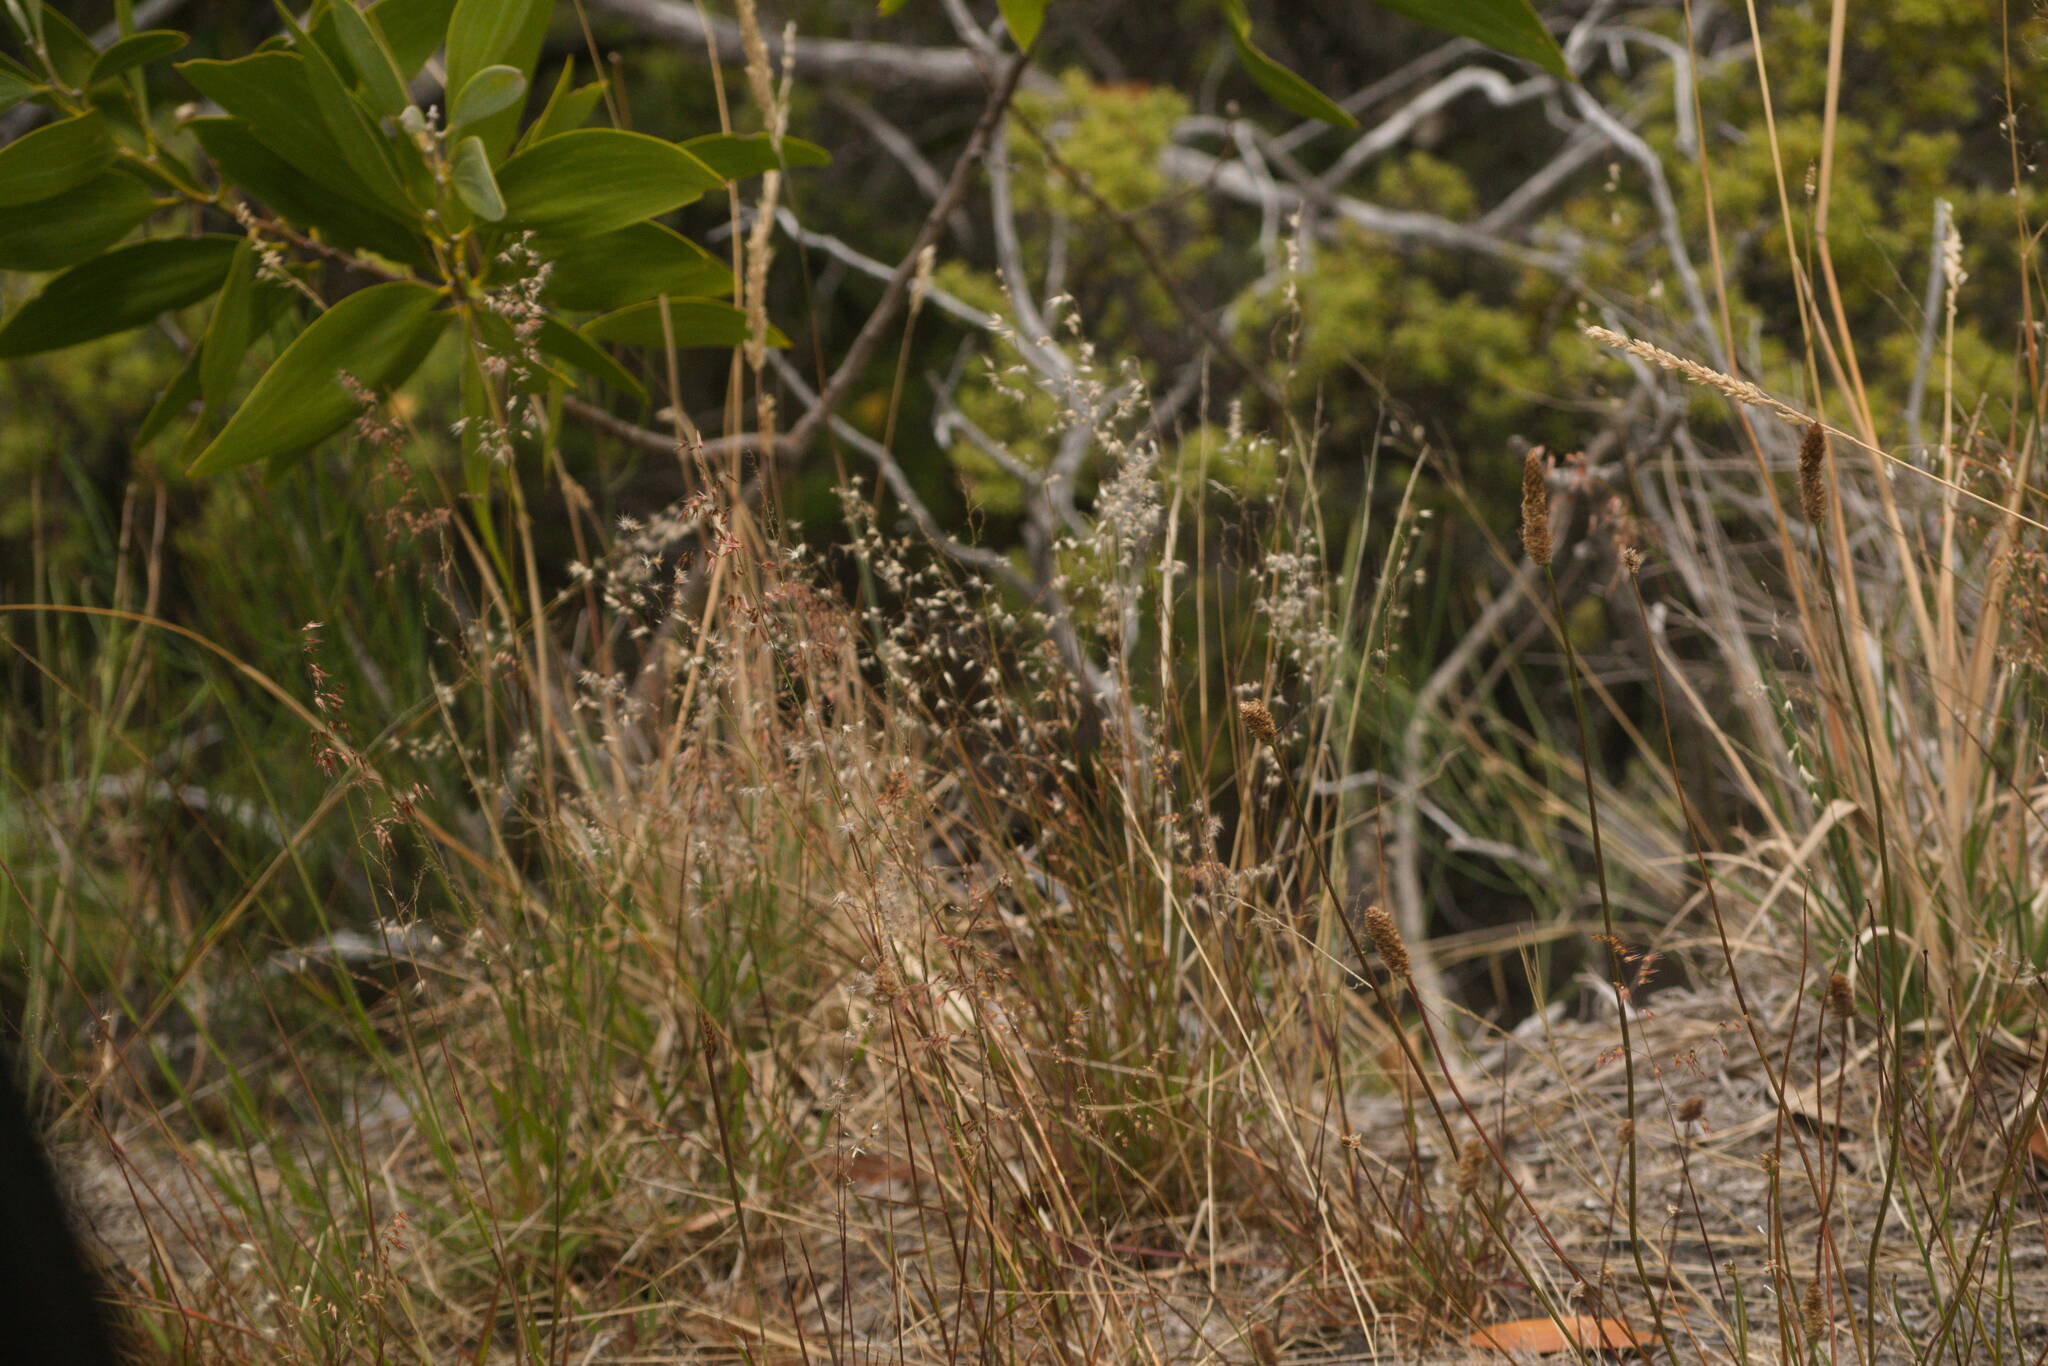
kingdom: Plantae
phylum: Tracheophyta
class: Liliopsida
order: Poales
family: Poaceae
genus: Melinis
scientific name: Melinis repens
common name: Rose natal grass
